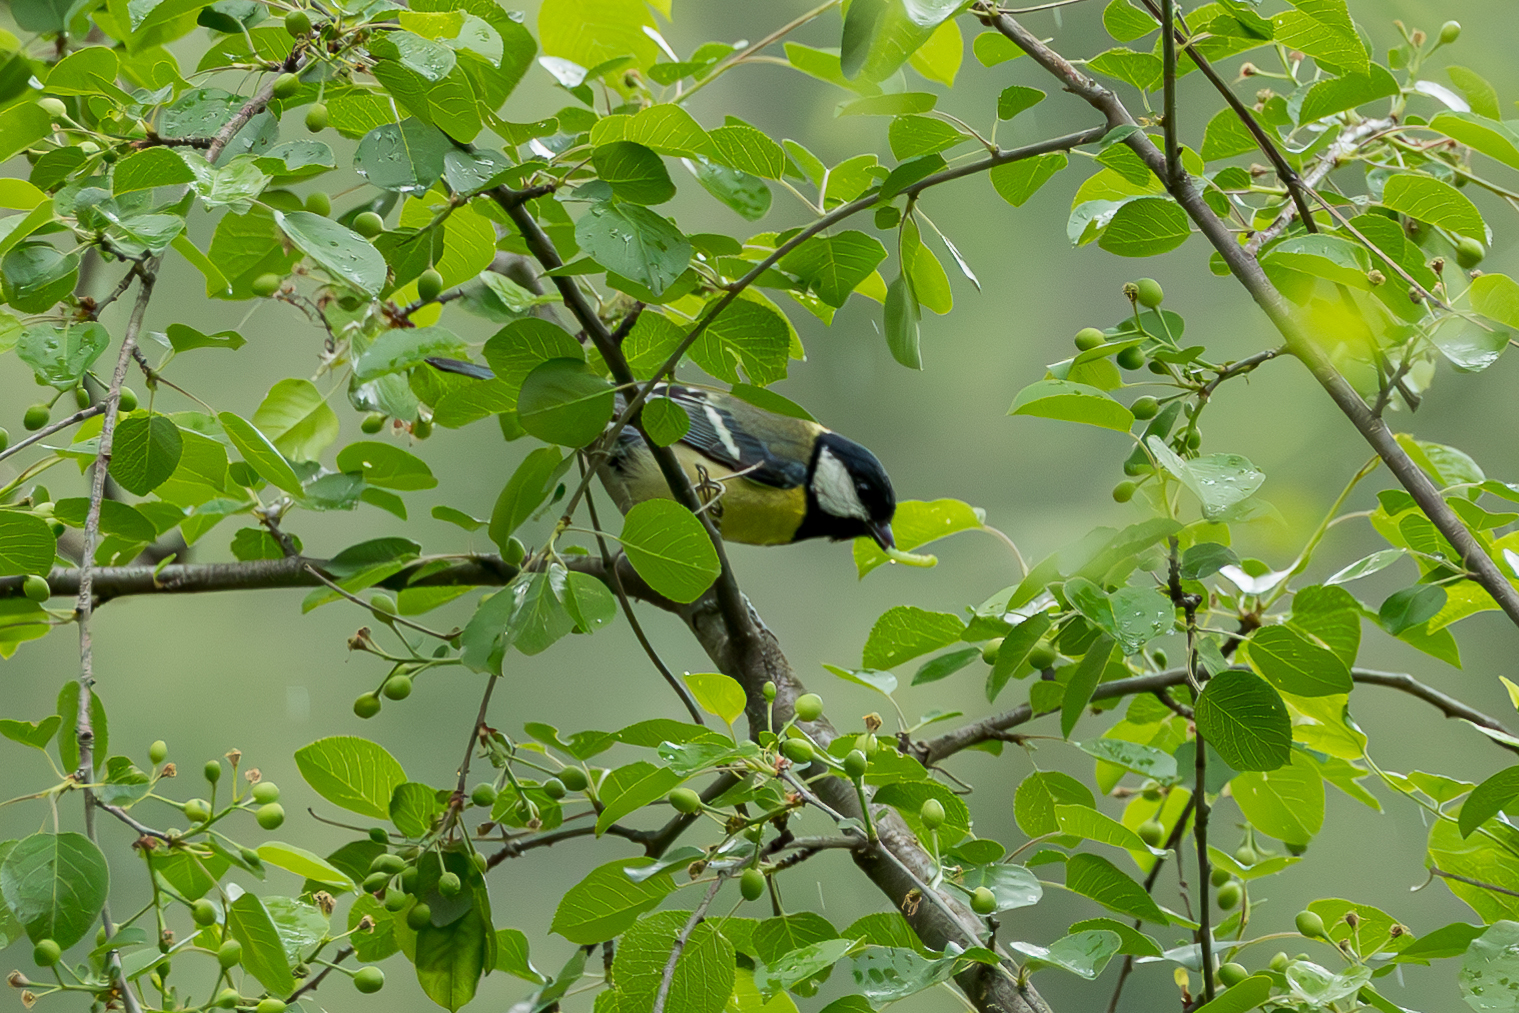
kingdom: Animalia
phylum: Chordata
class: Aves
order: Passeriformes
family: Paridae
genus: Parus
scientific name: Parus major
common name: Great tit
